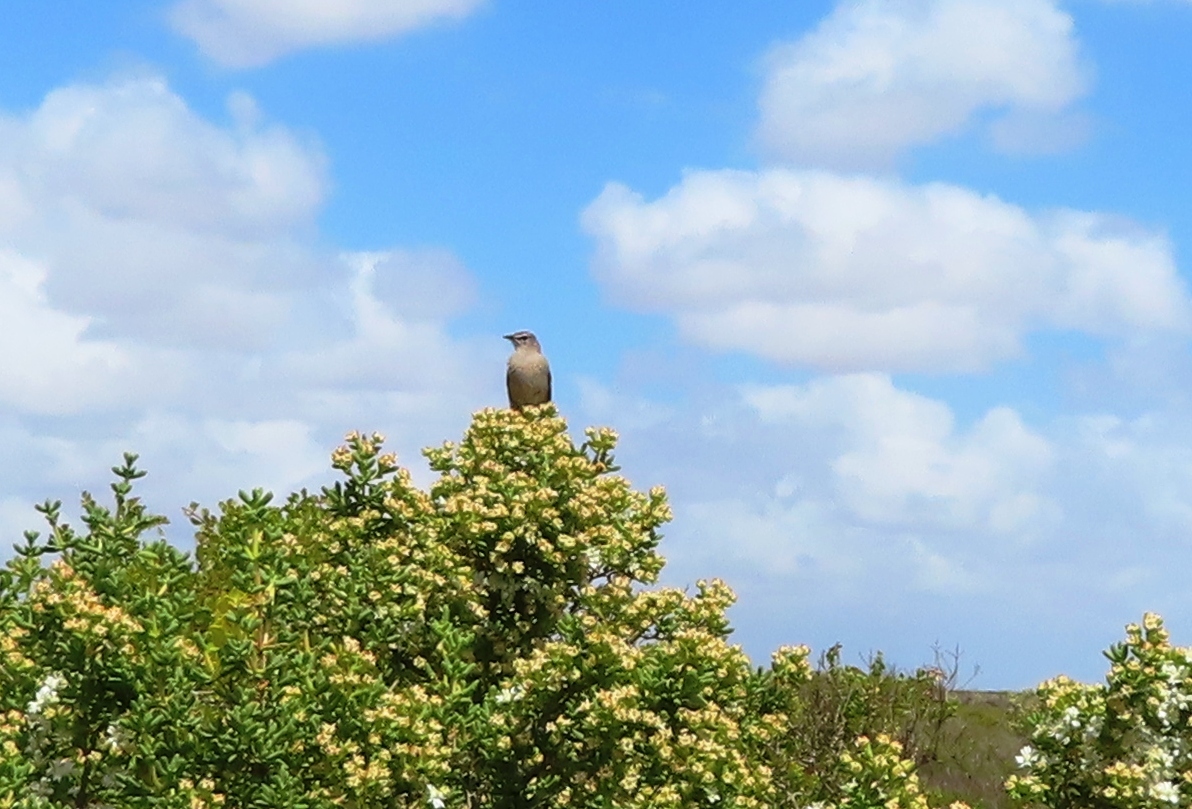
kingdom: Animalia
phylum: Chordata
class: Aves
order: Passeriformes
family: Muscicapidae
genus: Erythropygia
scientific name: Erythropygia coryphoeus
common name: Karoo scrub robin
